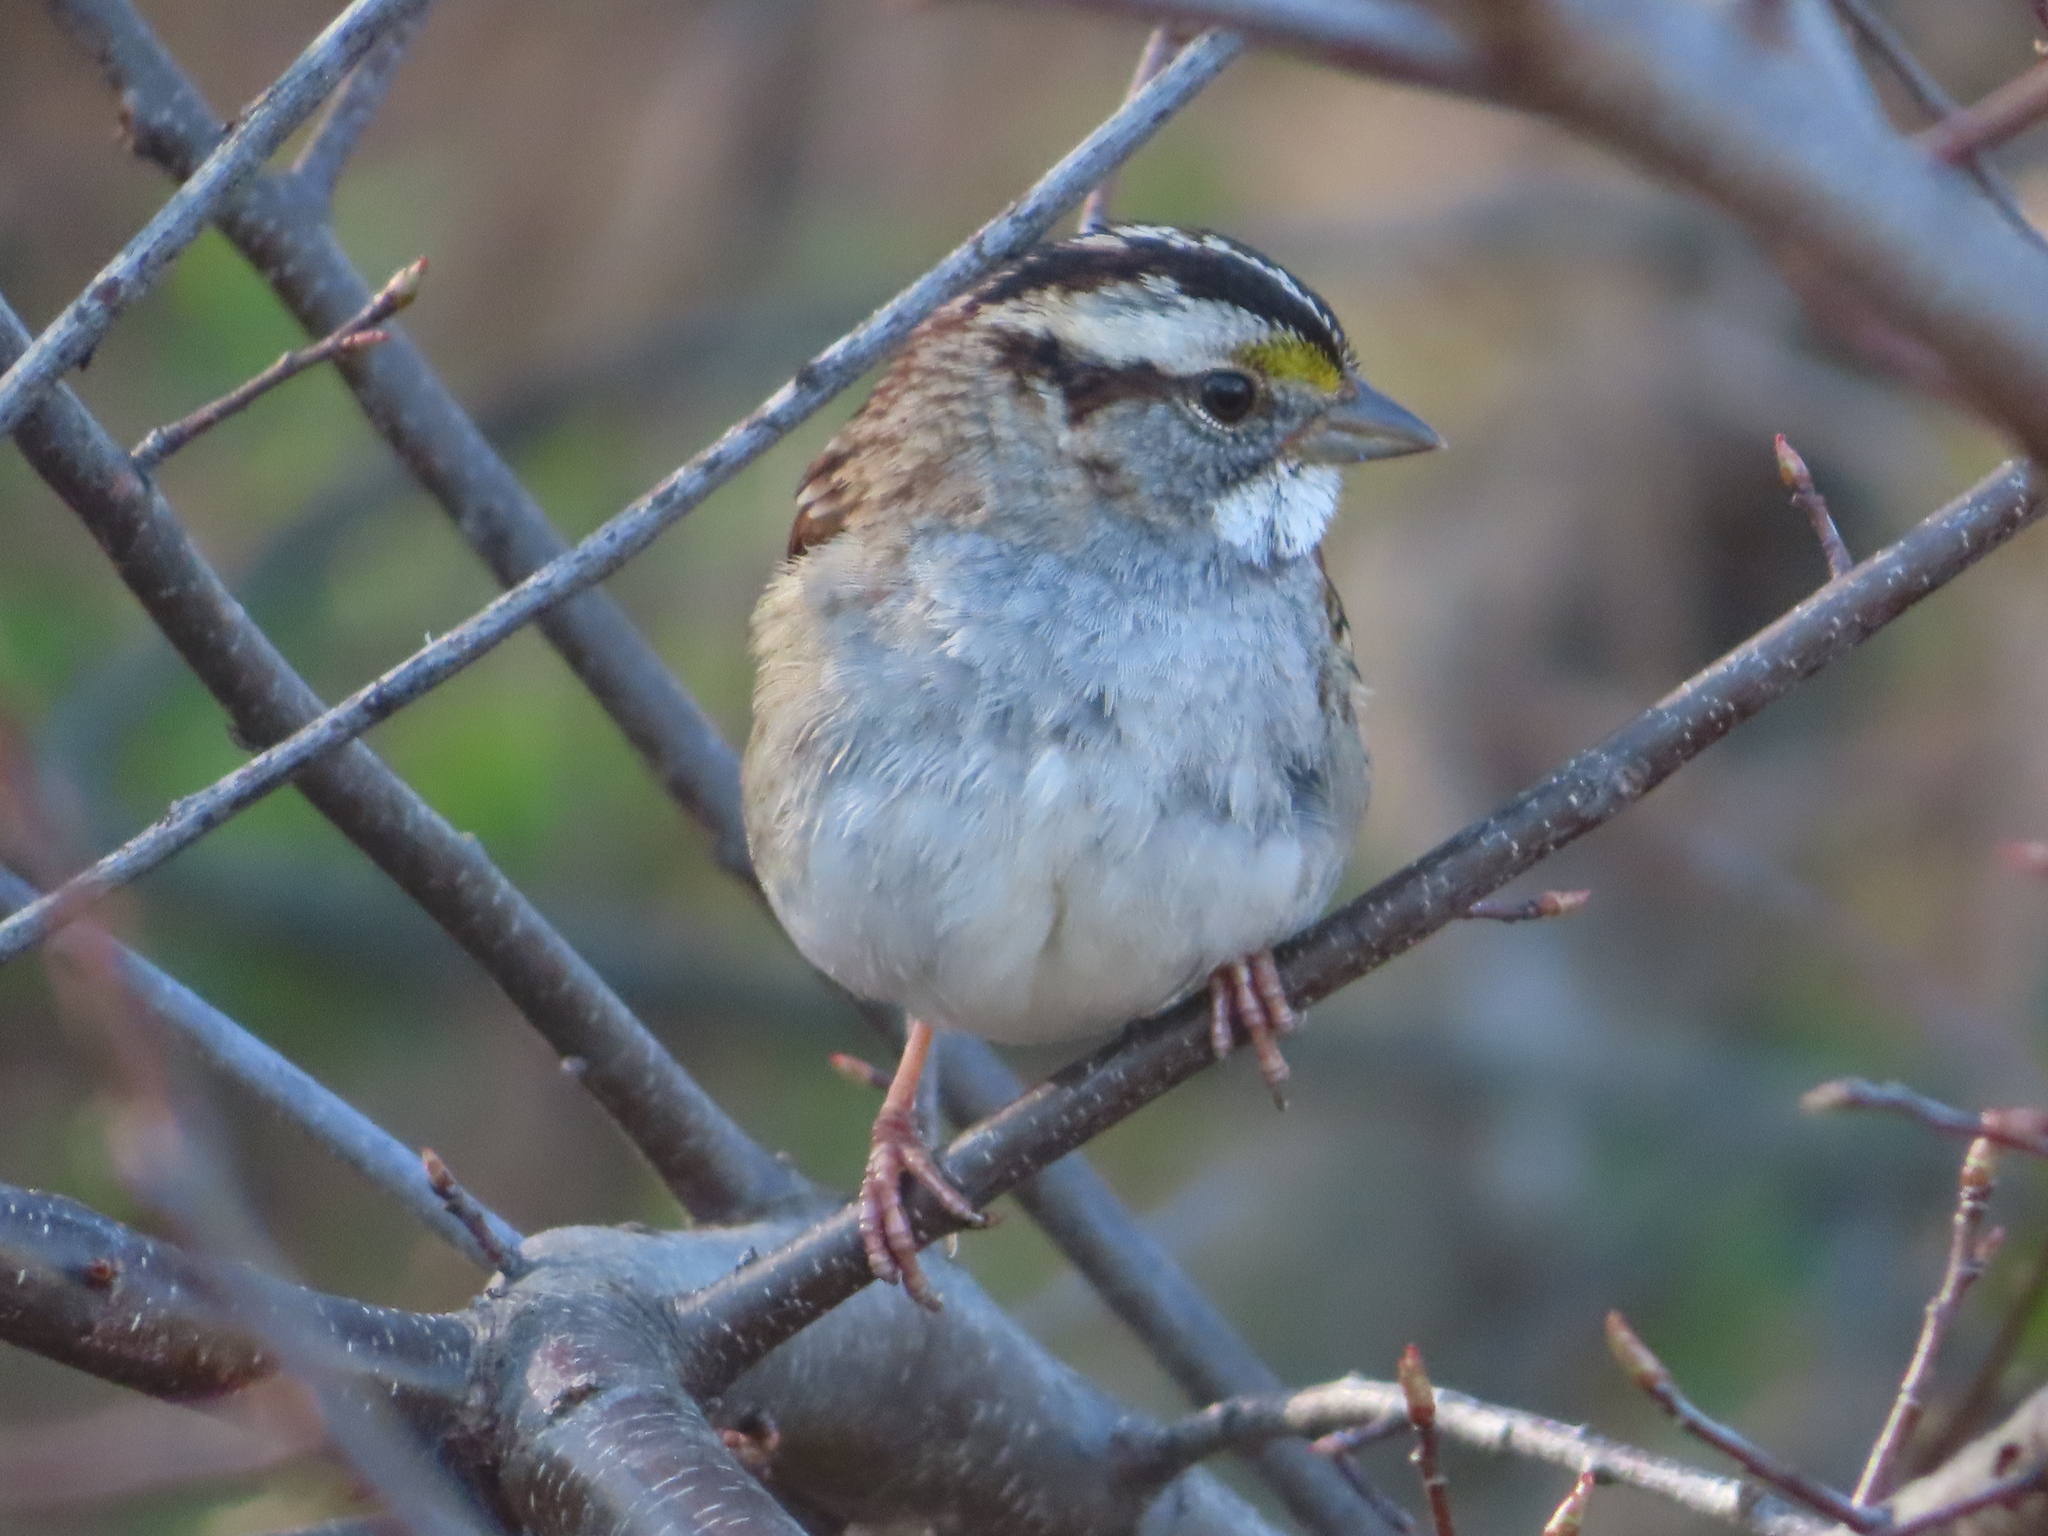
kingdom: Animalia
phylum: Chordata
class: Aves
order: Passeriformes
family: Passerellidae
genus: Zonotrichia
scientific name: Zonotrichia albicollis
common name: White-throated sparrow
